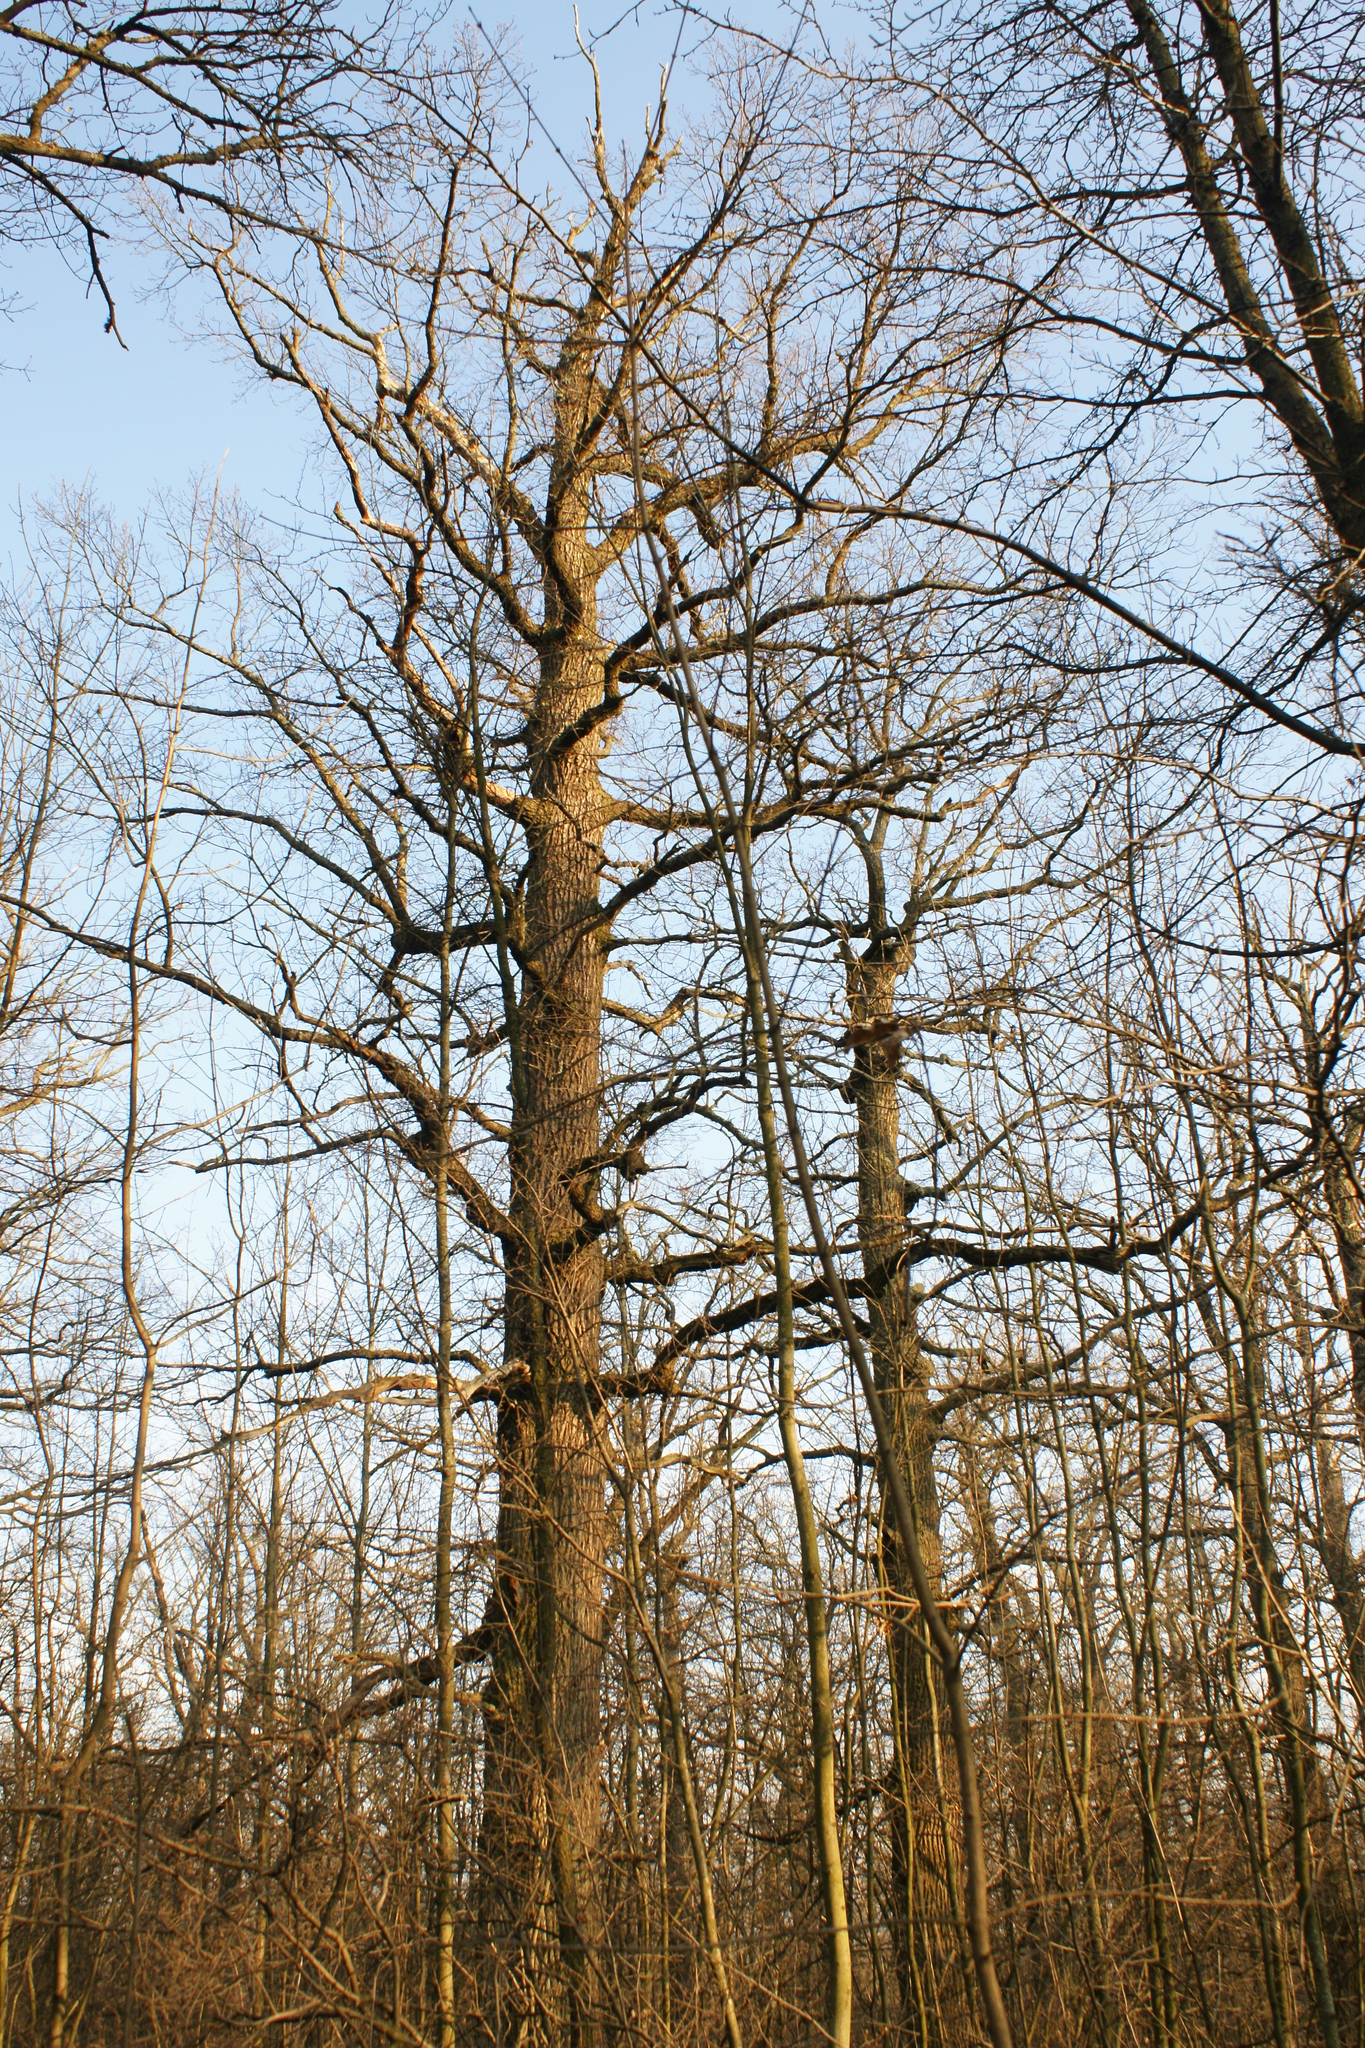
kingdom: Plantae
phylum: Tracheophyta
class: Magnoliopsida
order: Fagales
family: Fagaceae
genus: Quercus
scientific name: Quercus robur
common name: Pedunculate oak
